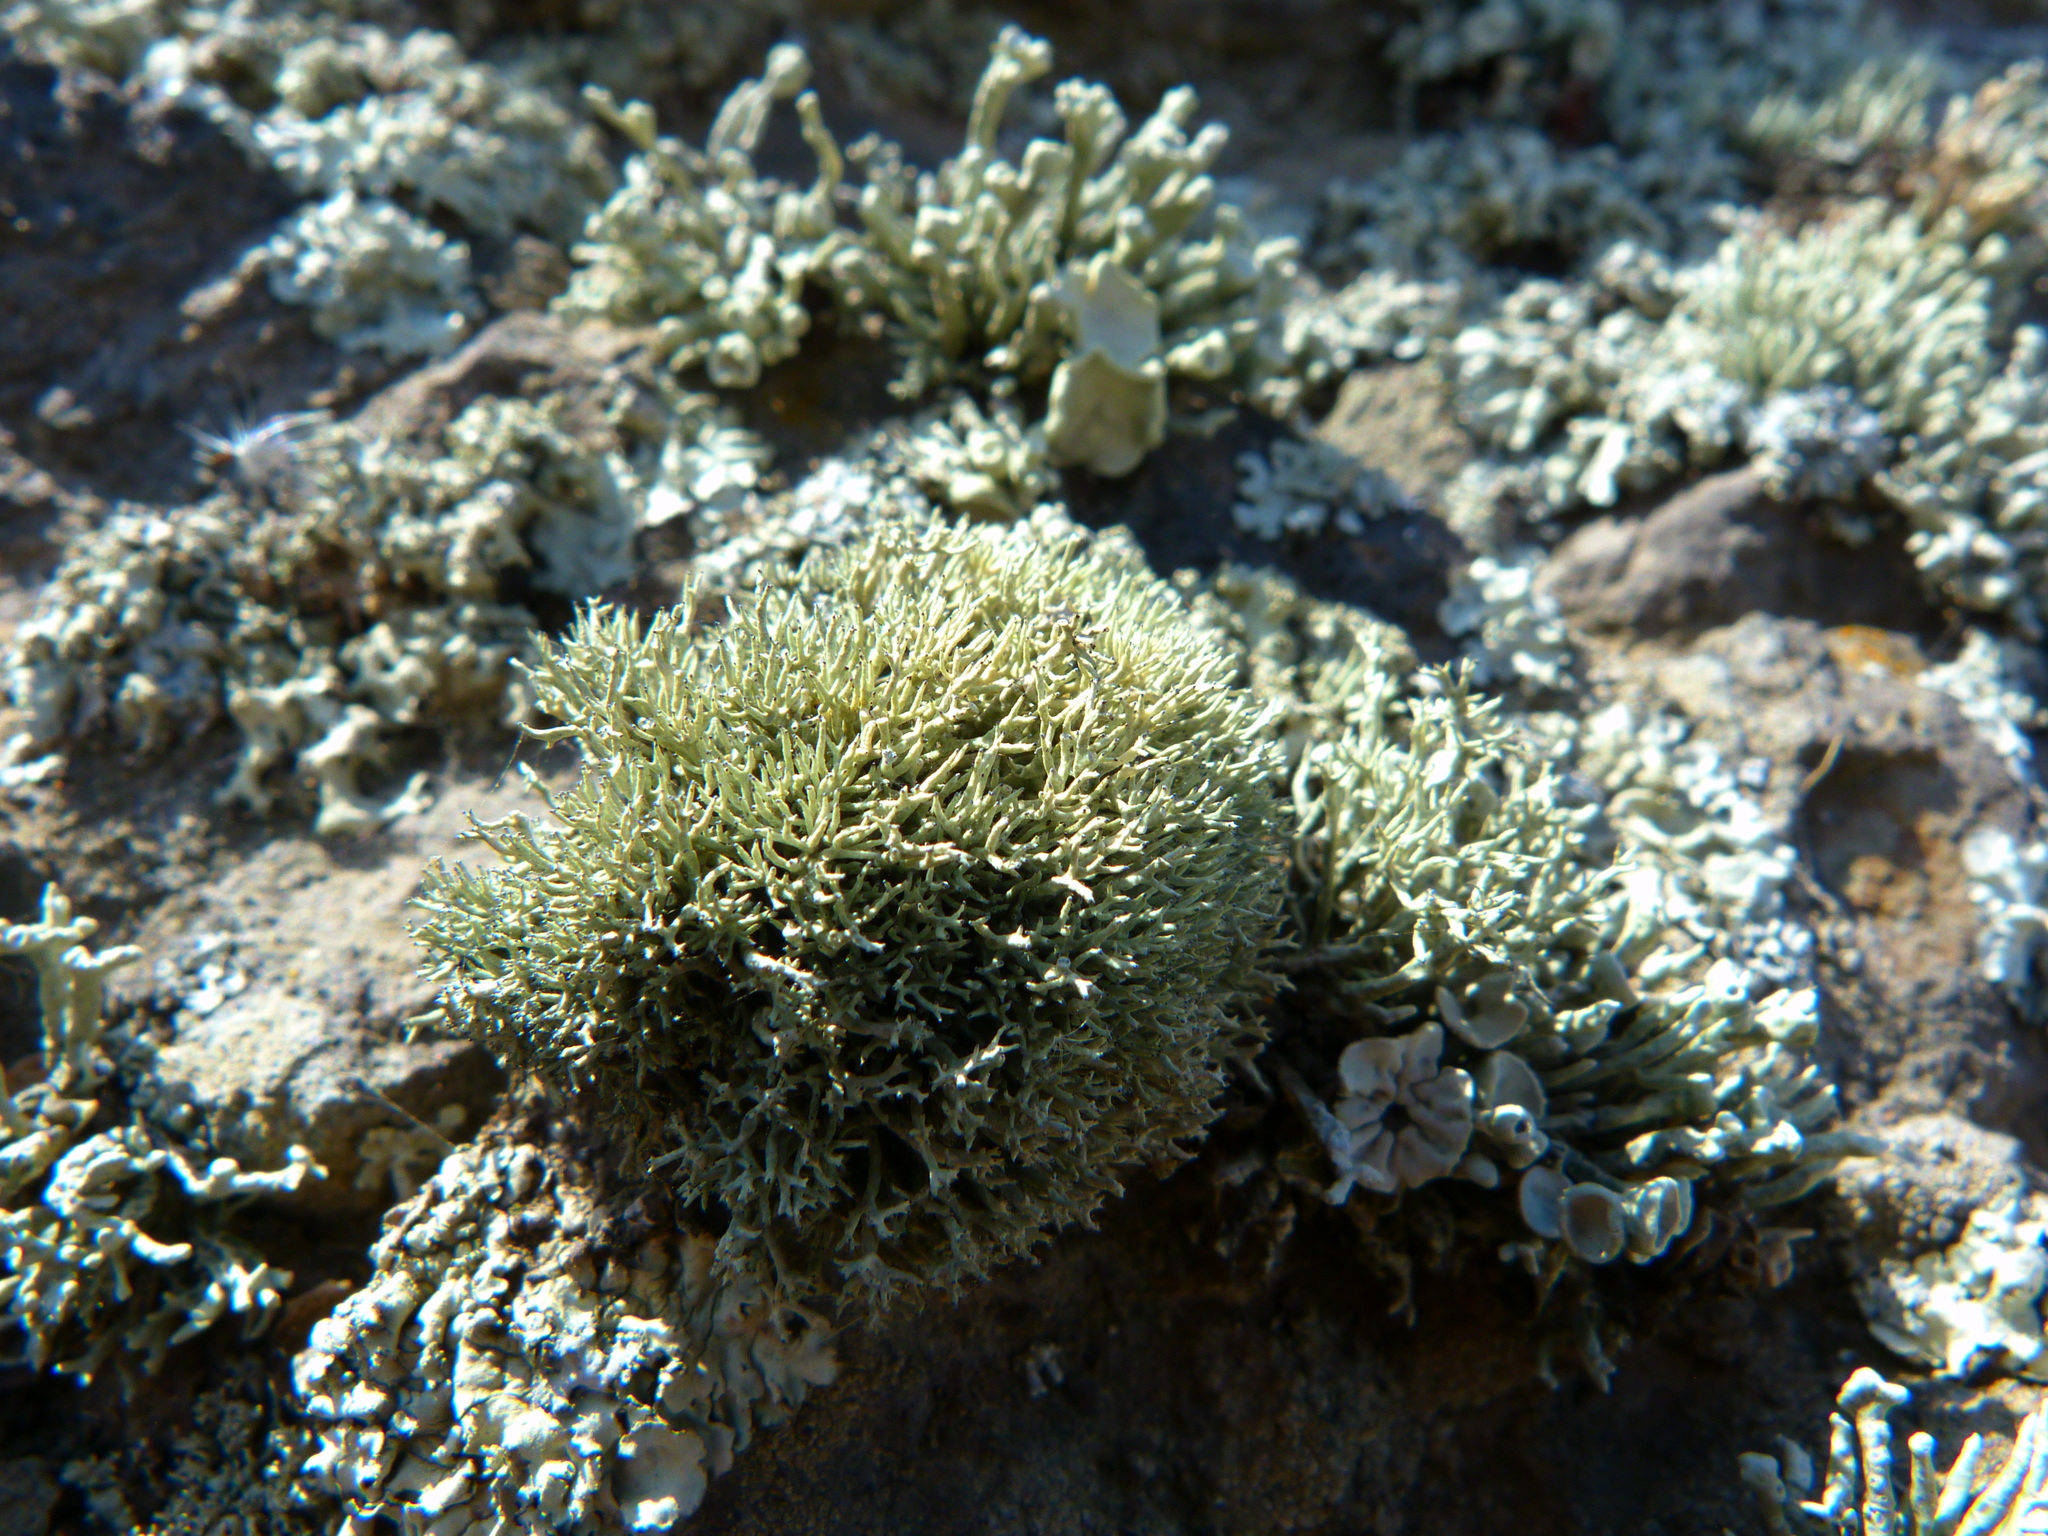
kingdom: Fungi
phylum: Ascomycota
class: Lecanoromycetes
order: Lecanorales
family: Ramalinaceae
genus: Niebla
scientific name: Niebla ceruchoides
